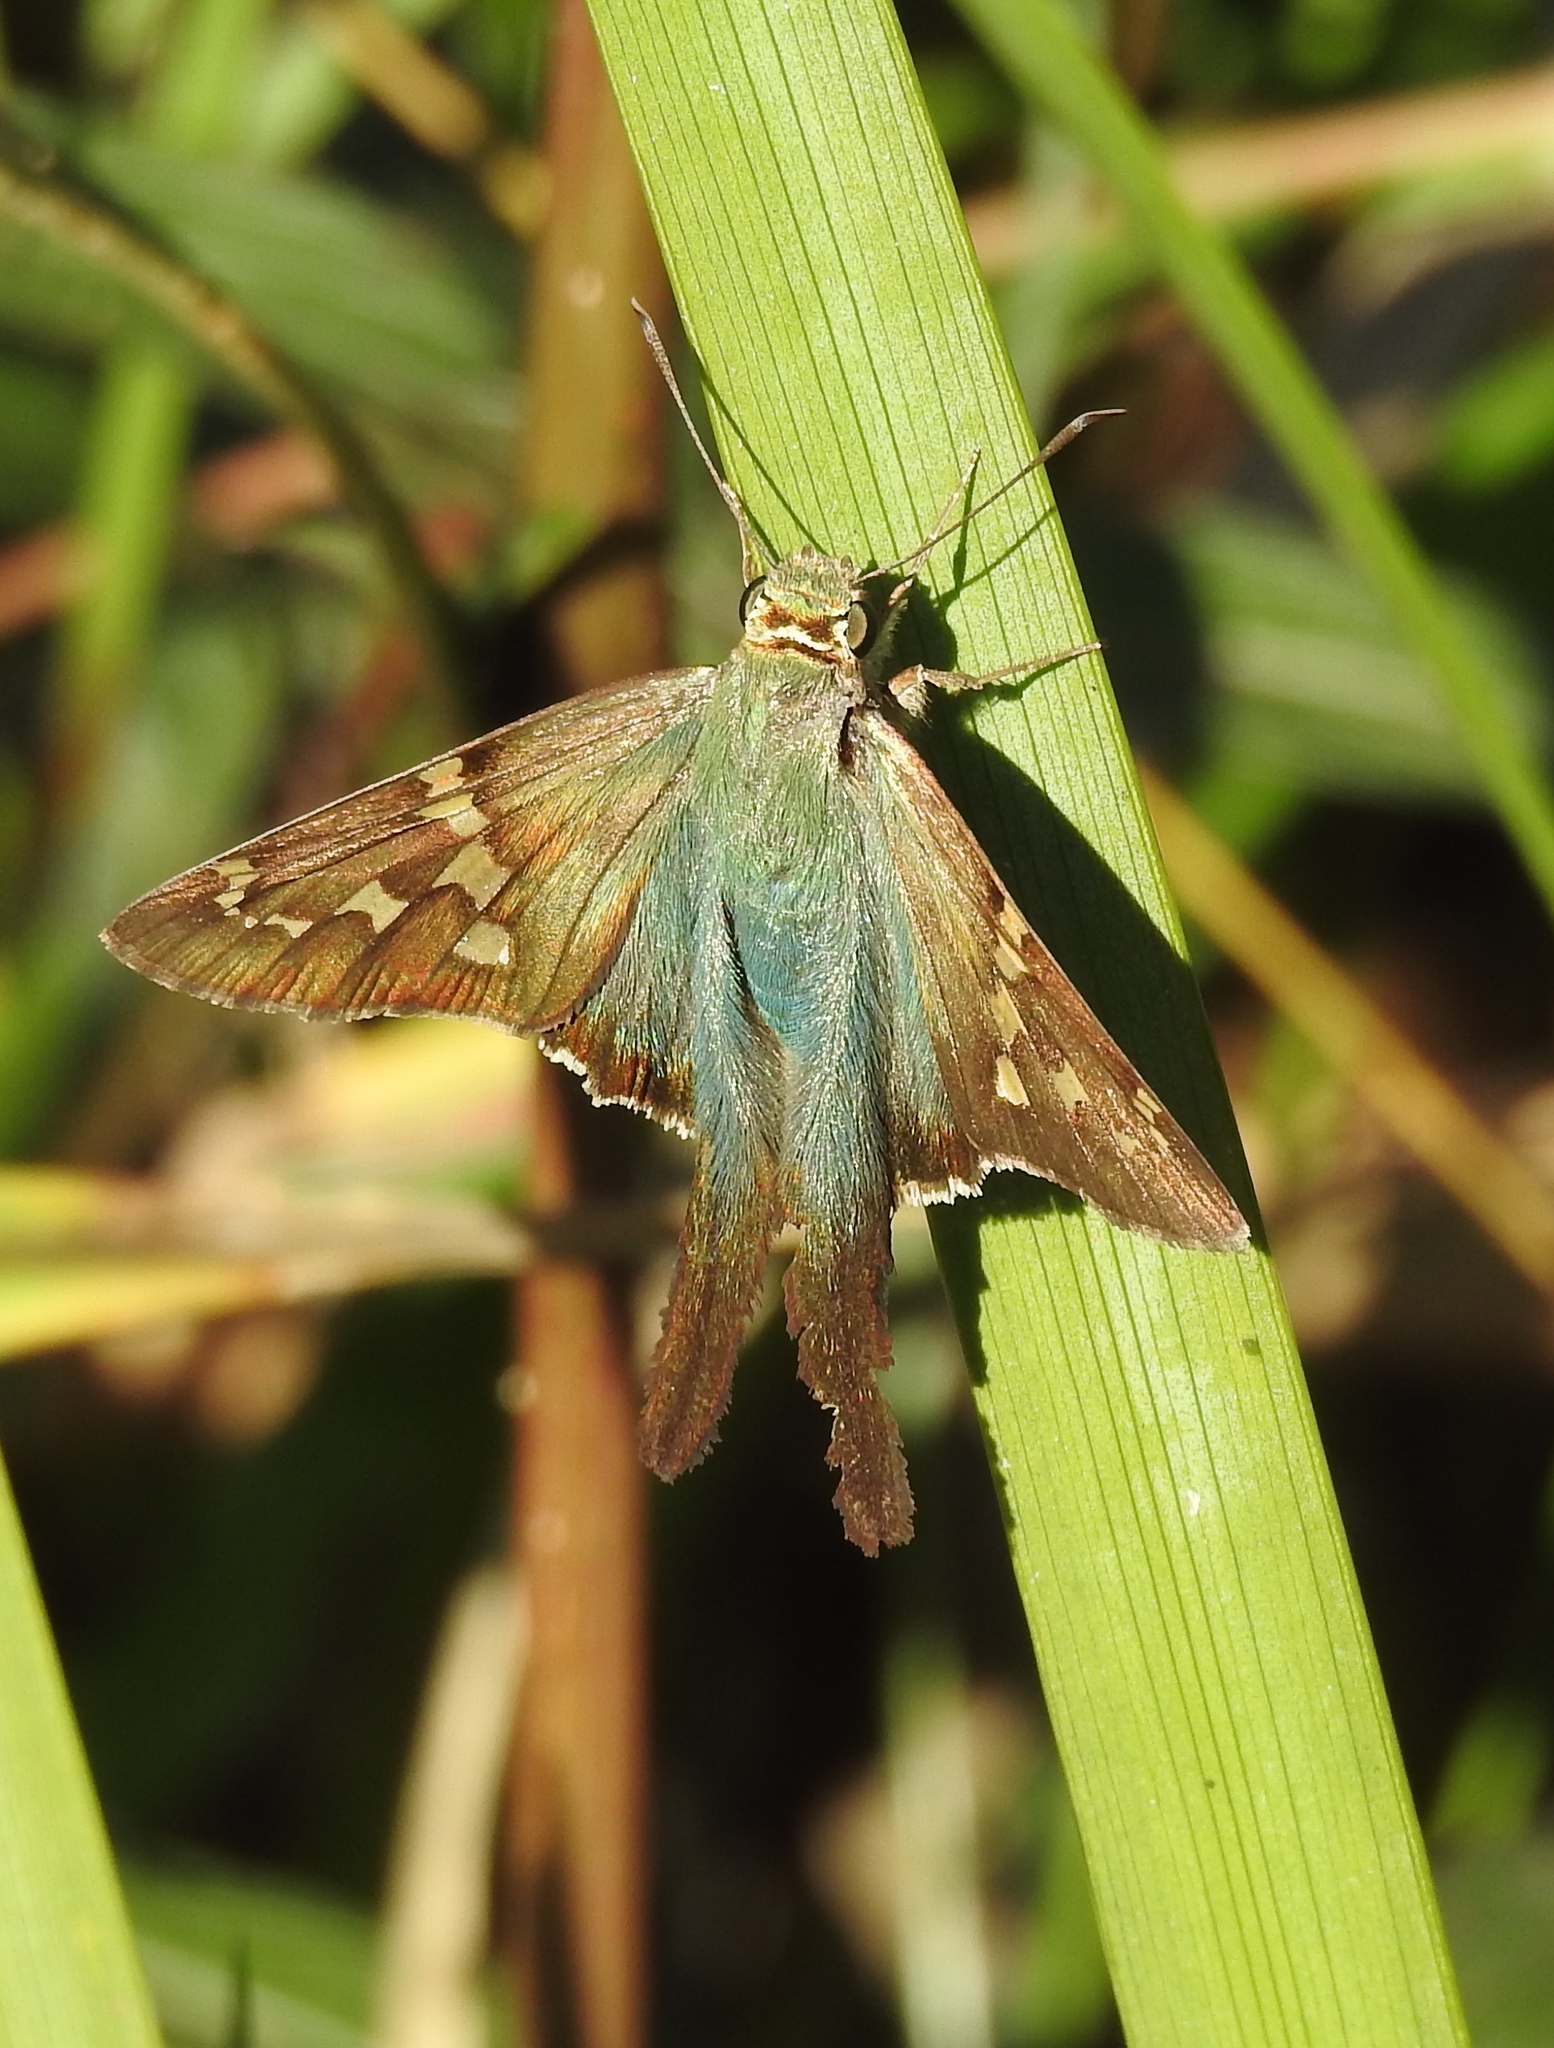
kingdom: Animalia
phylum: Arthropoda
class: Insecta
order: Lepidoptera
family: Hesperiidae
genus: Urbanus
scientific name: Urbanus proteus
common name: Long-tailed skipper
